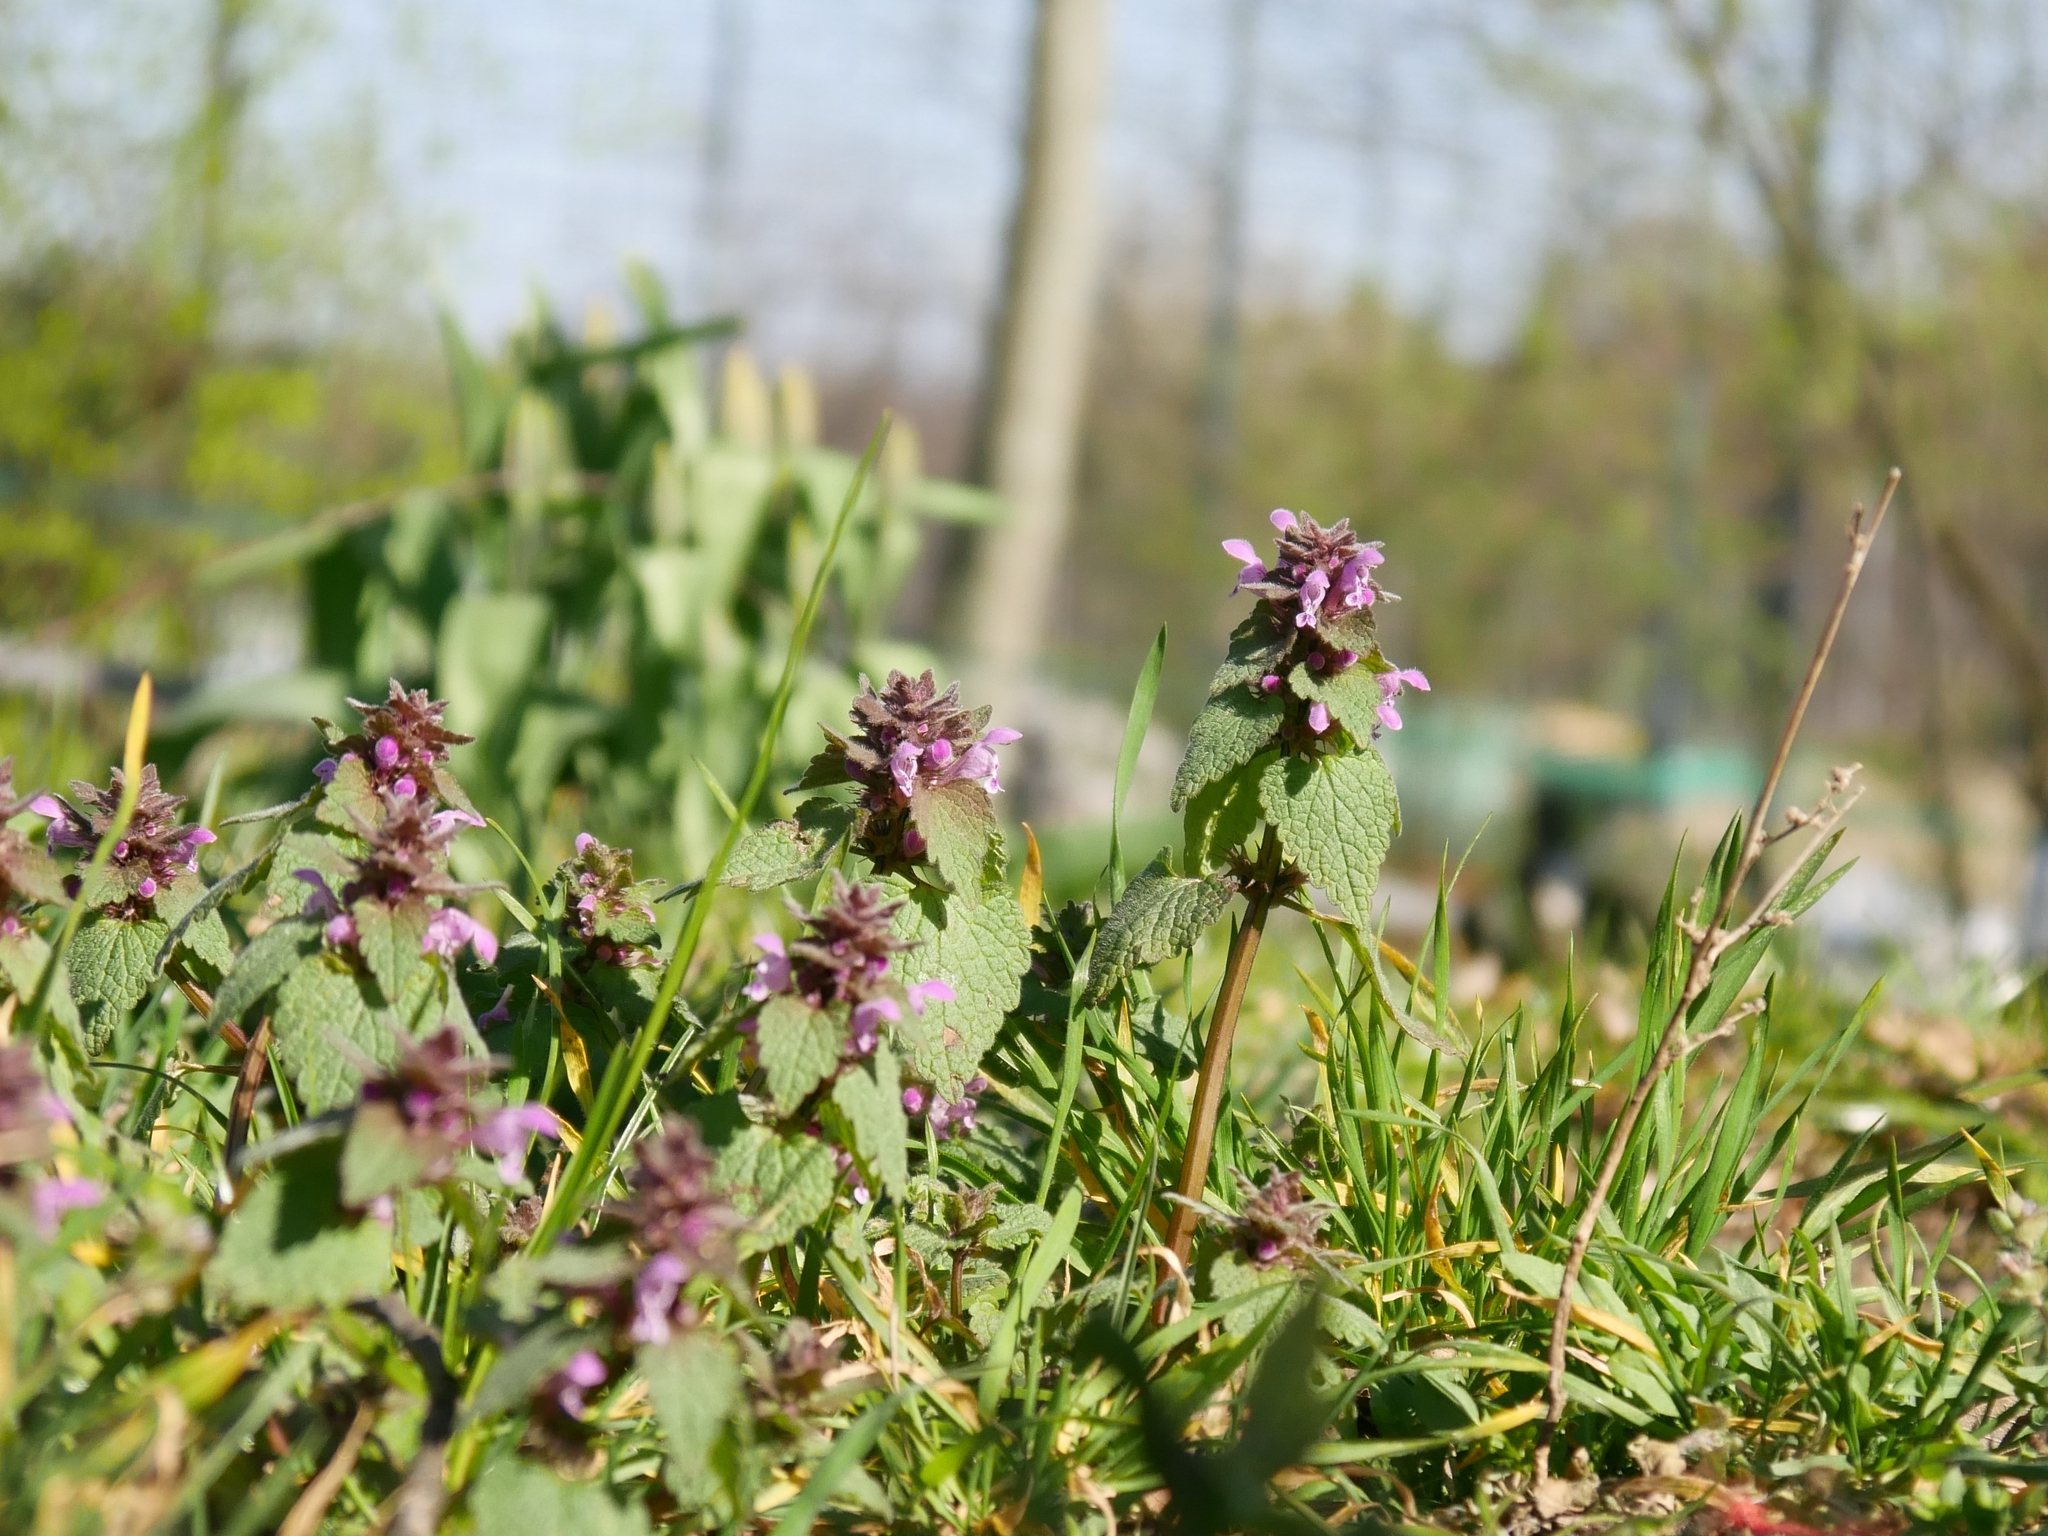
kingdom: Plantae
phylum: Tracheophyta
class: Magnoliopsida
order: Lamiales
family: Lamiaceae
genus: Lamium
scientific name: Lamium purpureum
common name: Red dead-nettle
